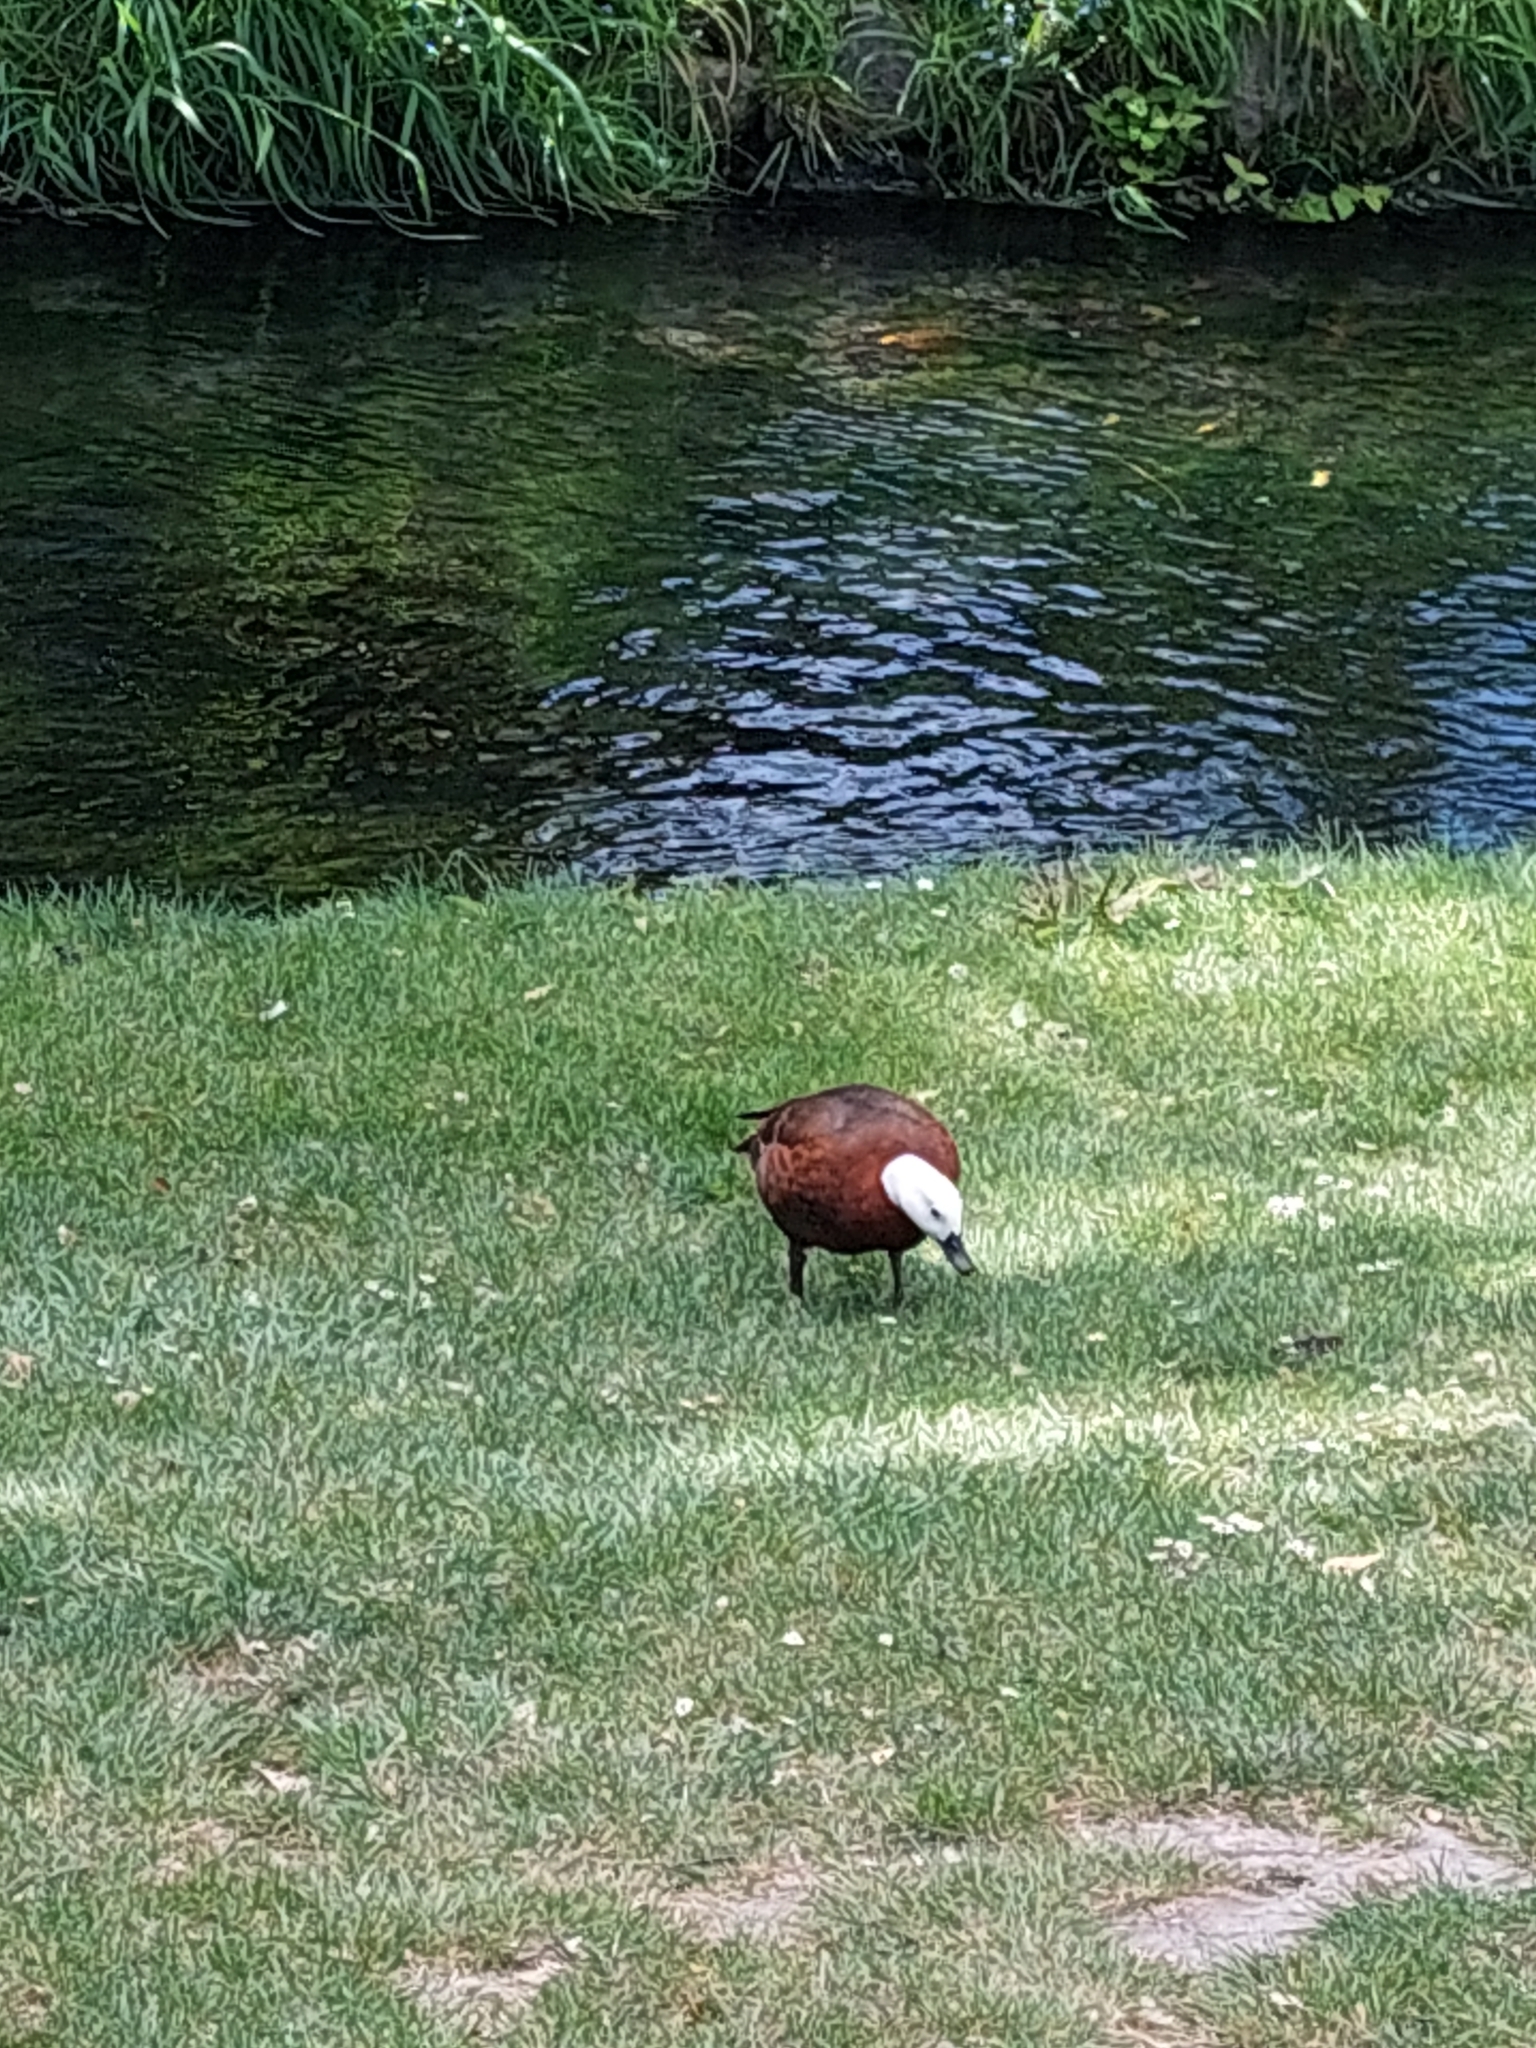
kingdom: Animalia
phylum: Chordata
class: Aves
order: Anseriformes
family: Anatidae
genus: Tadorna
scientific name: Tadorna variegata
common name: Paradise shelduck
